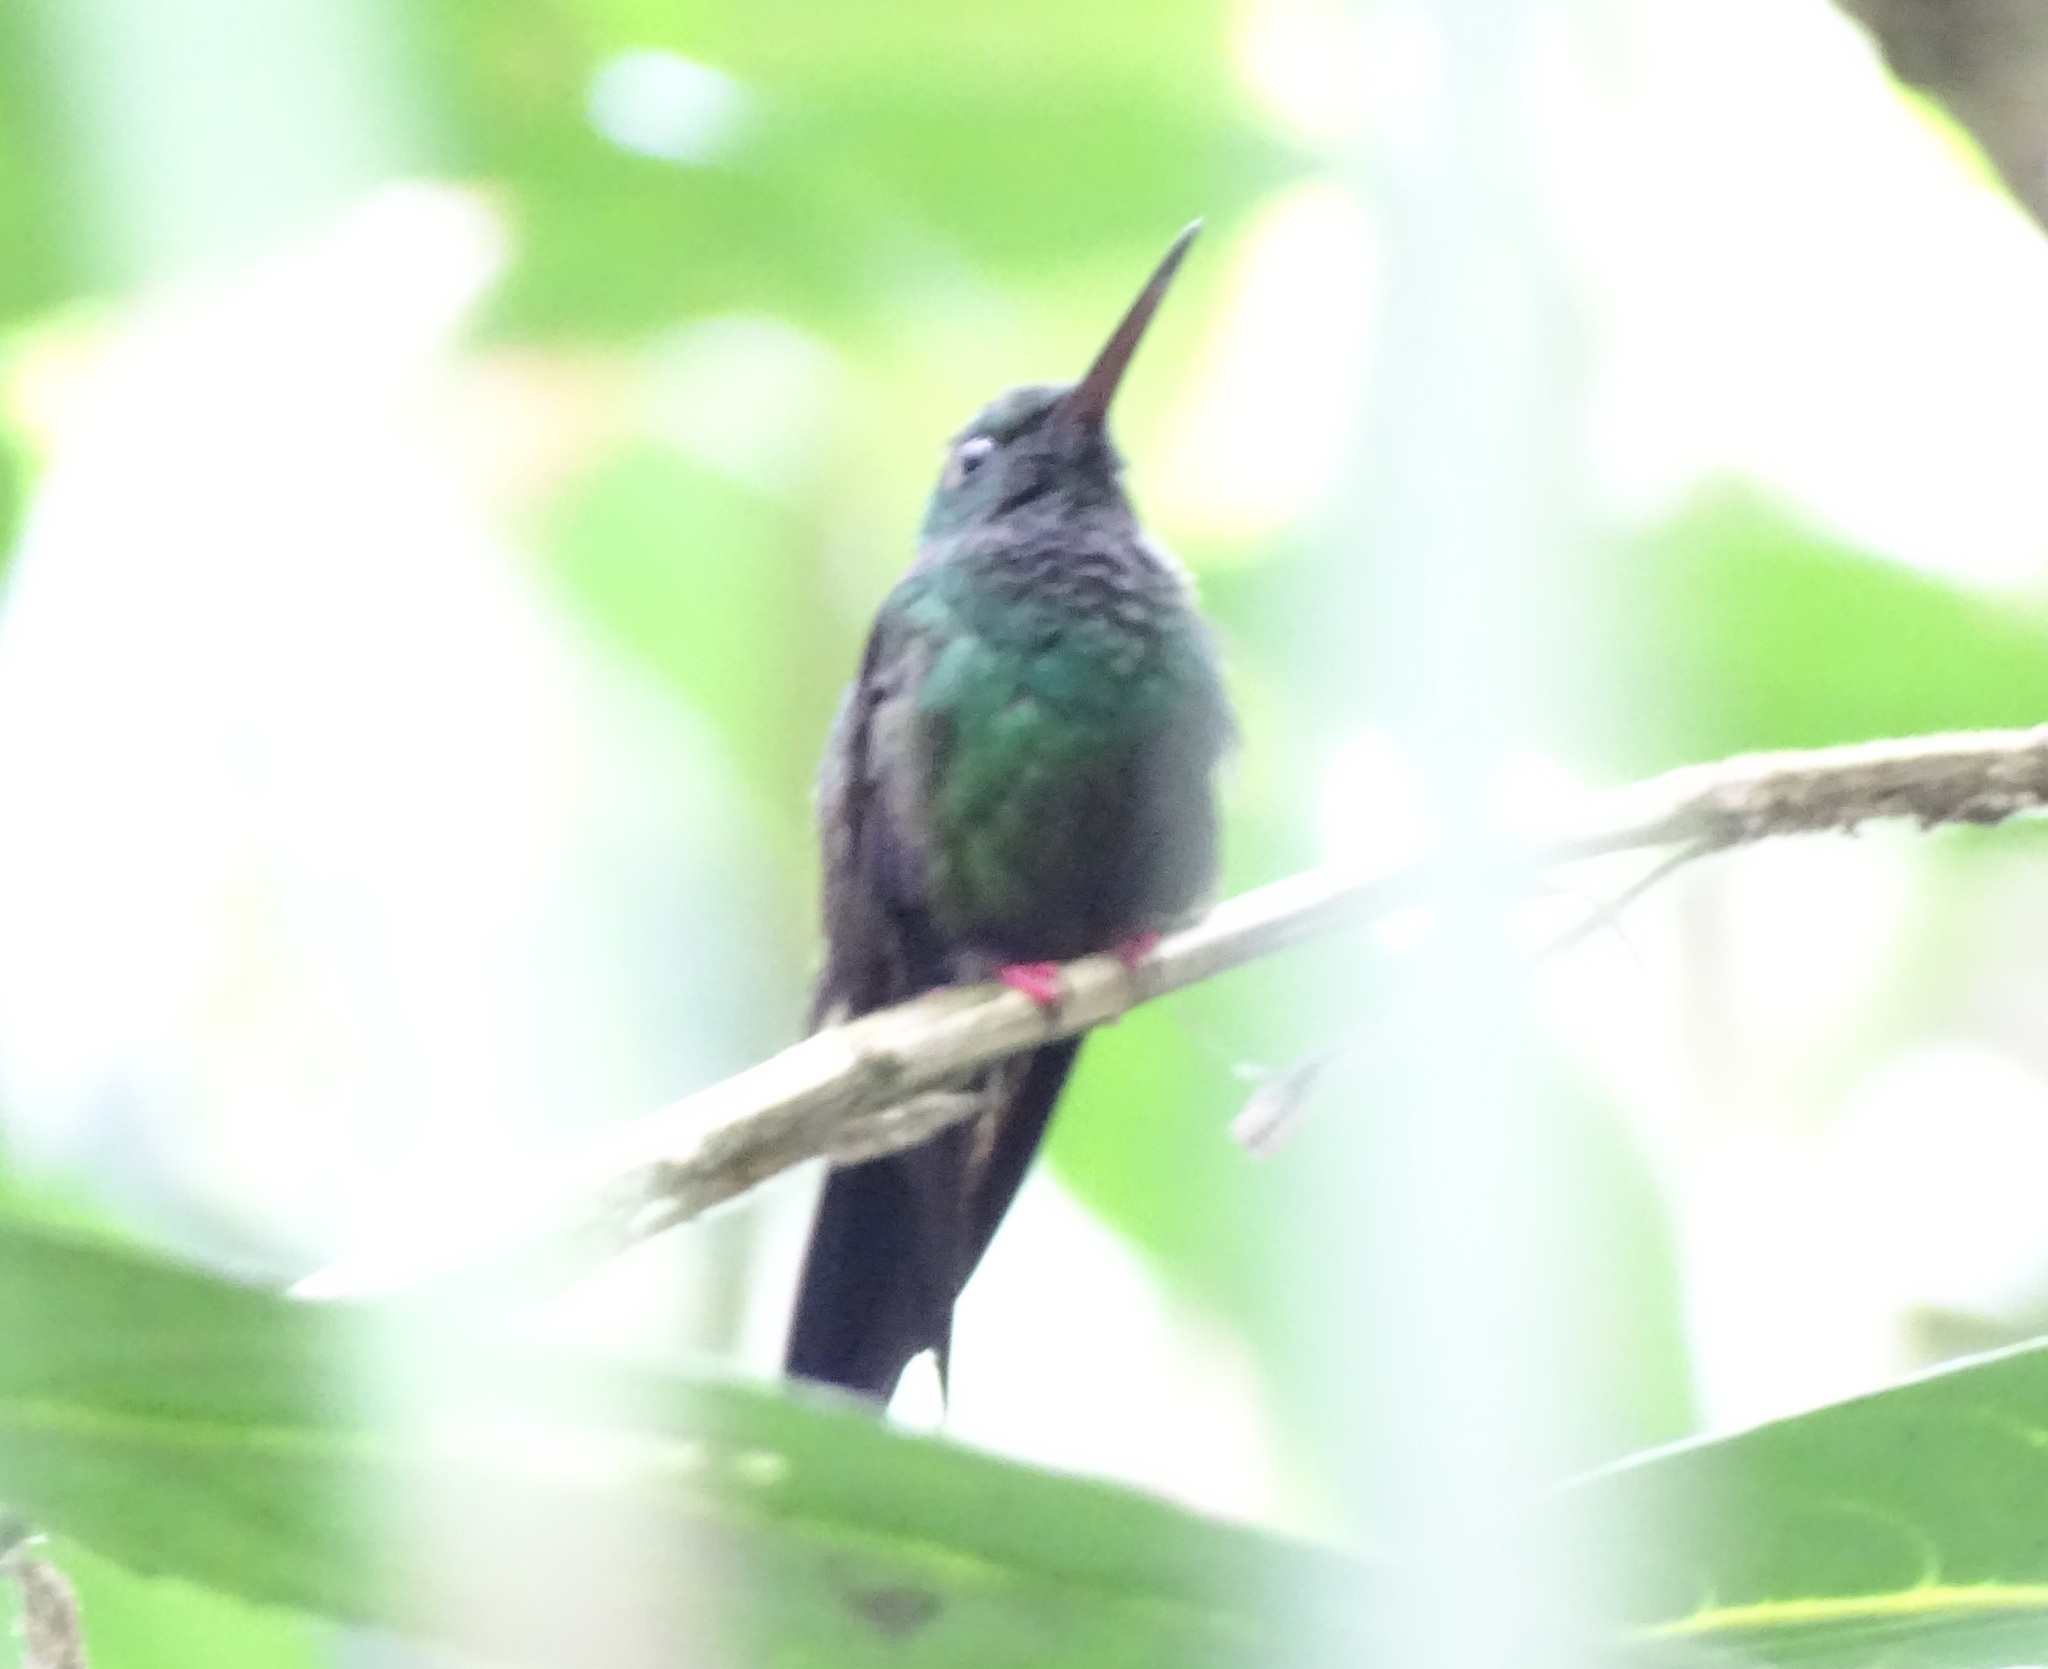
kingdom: Animalia
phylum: Chordata
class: Aves
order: Apodiformes
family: Trochilidae
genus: Chalybura
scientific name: Chalybura urochrysia
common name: Bronze-tailed plumeleteer
